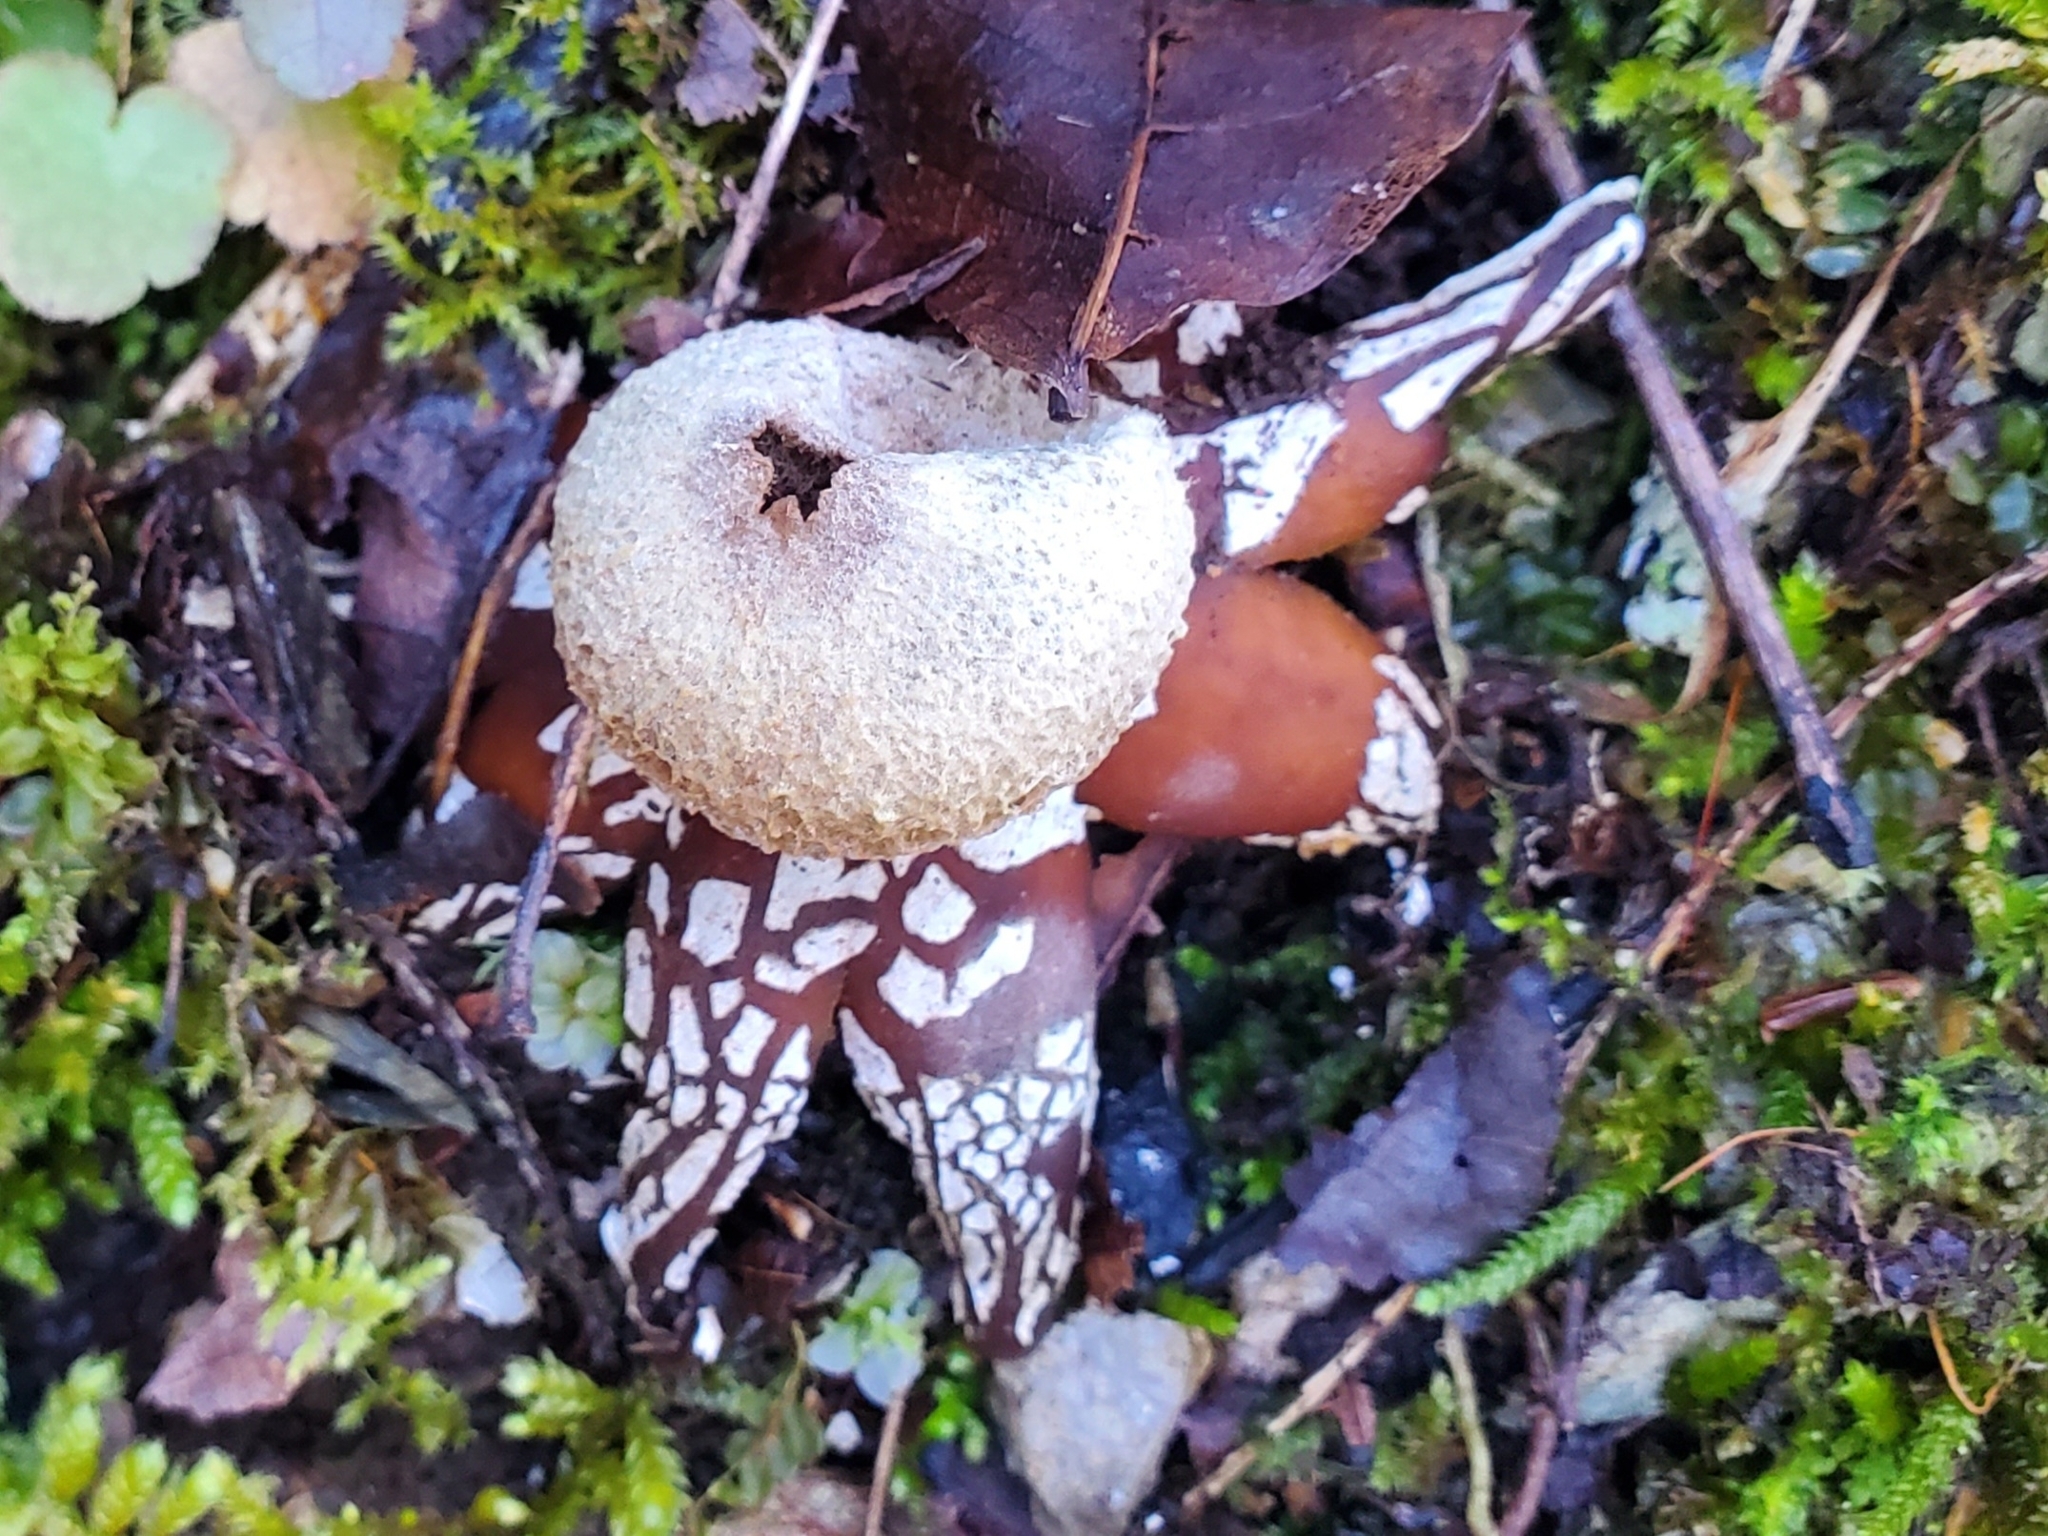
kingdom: Fungi
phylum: Basidiomycota
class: Agaricomycetes
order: Boletales
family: Diplocystidiaceae
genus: Astraeus
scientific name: Astraeus hygrometricus
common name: Barometer earthstar
